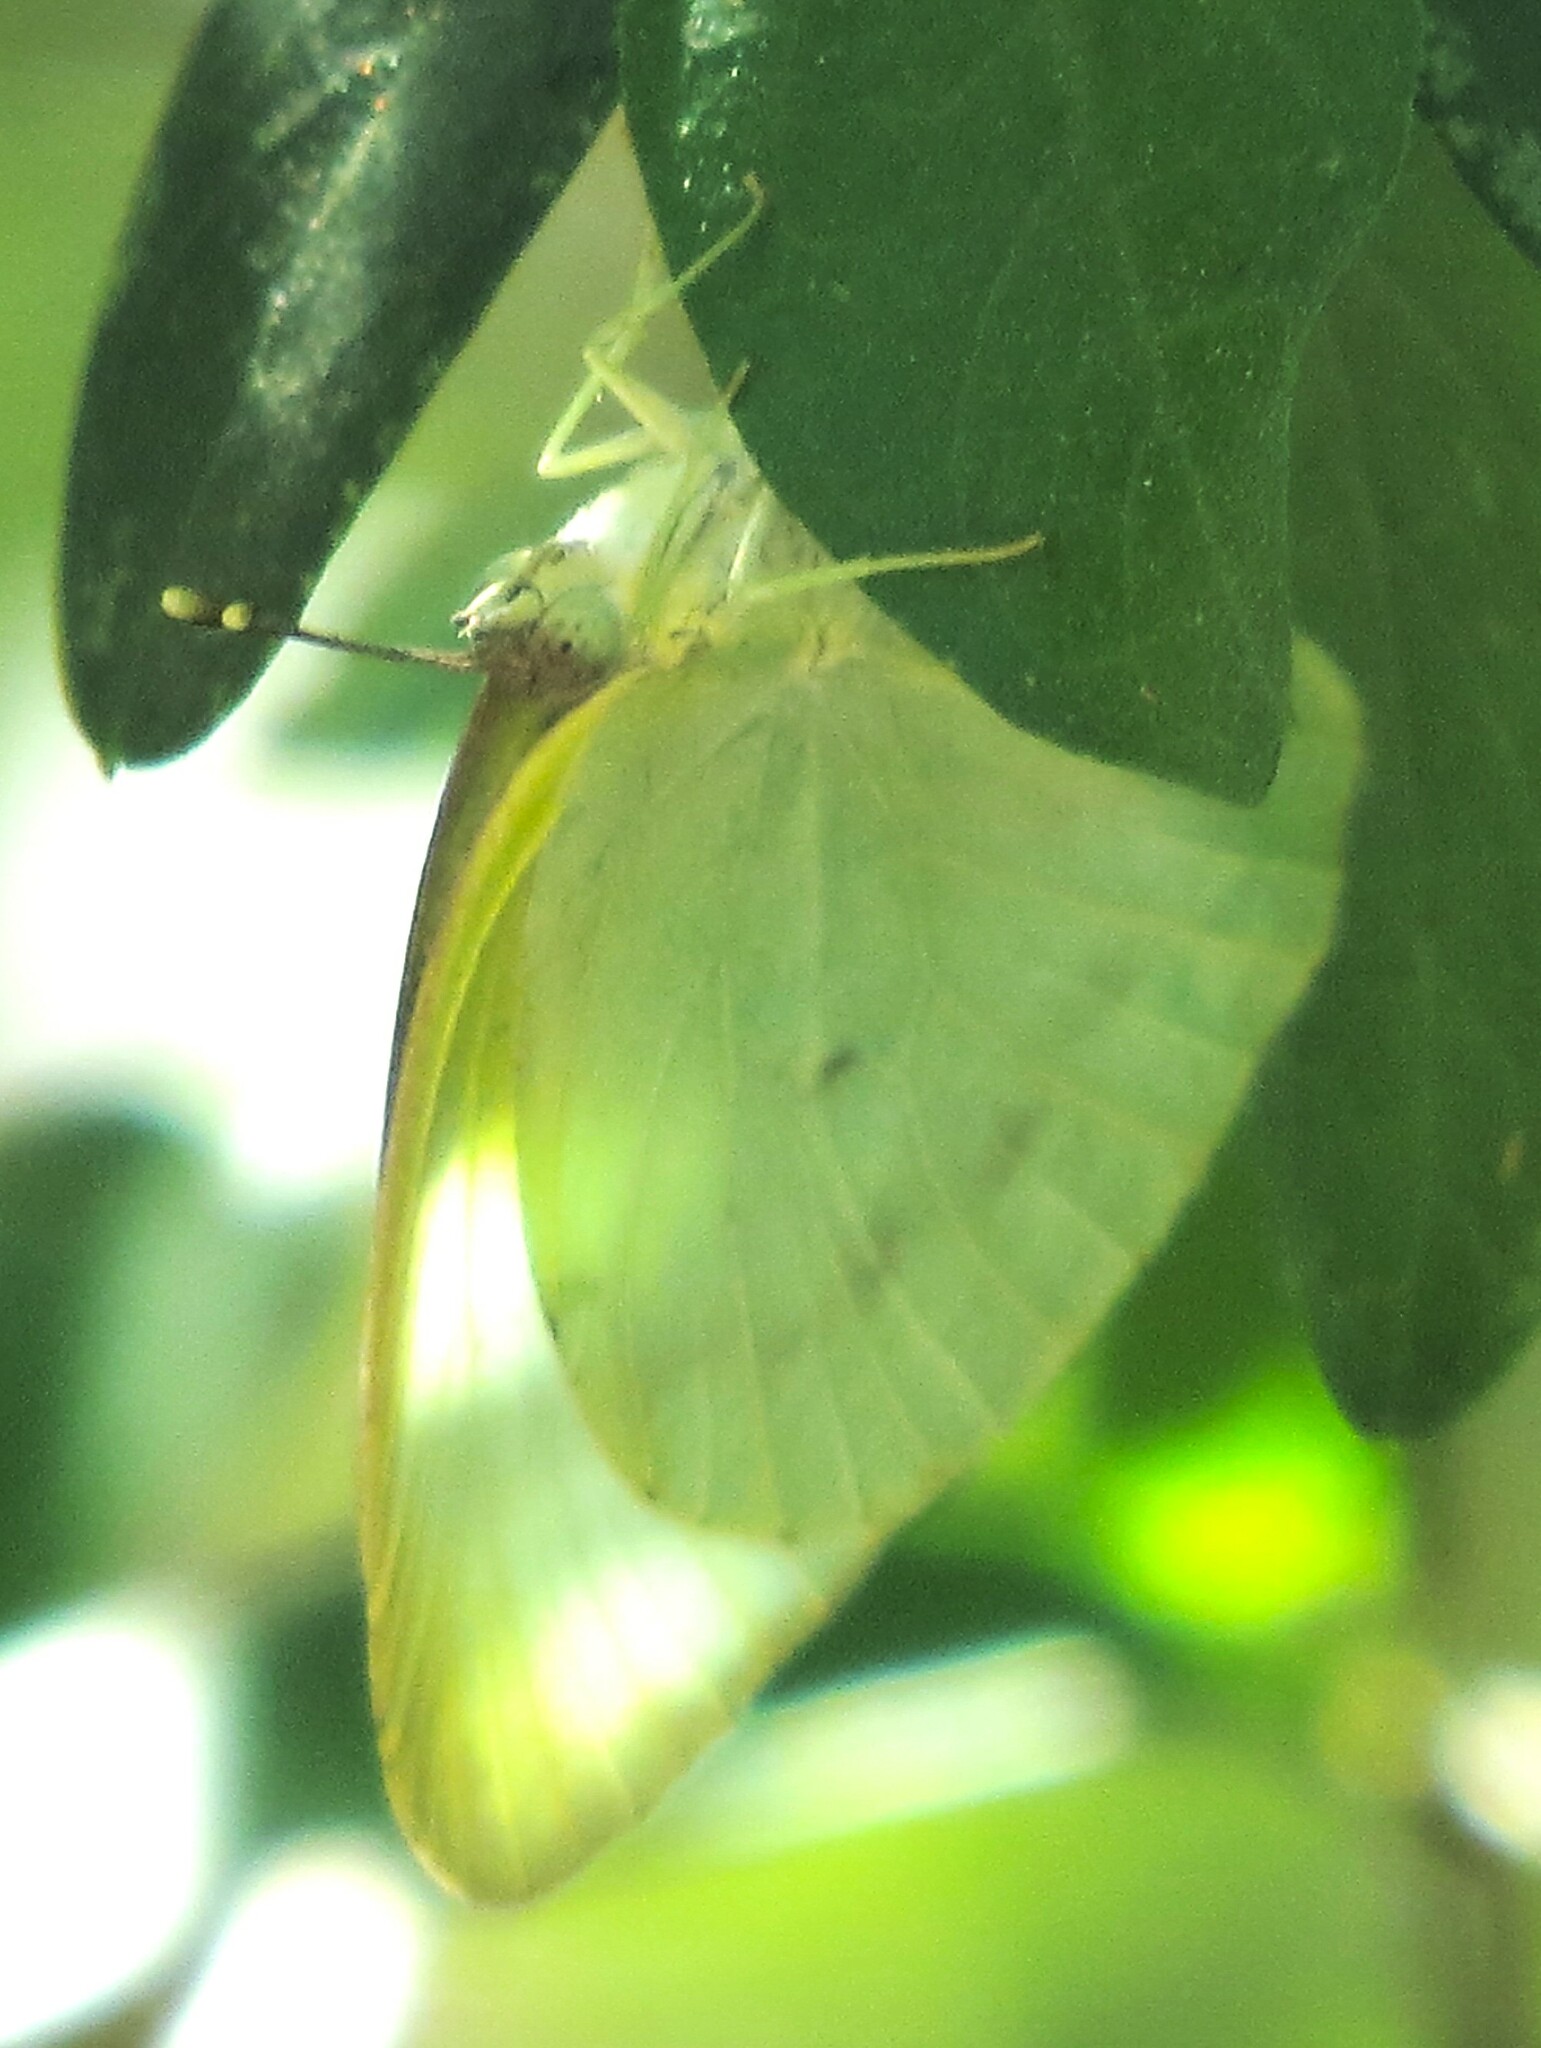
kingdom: Animalia
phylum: Arthropoda
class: Insecta
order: Lepidoptera
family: Pieridae
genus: Kricogonia
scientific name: Kricogonia lyside
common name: Guayacan sulphur,
